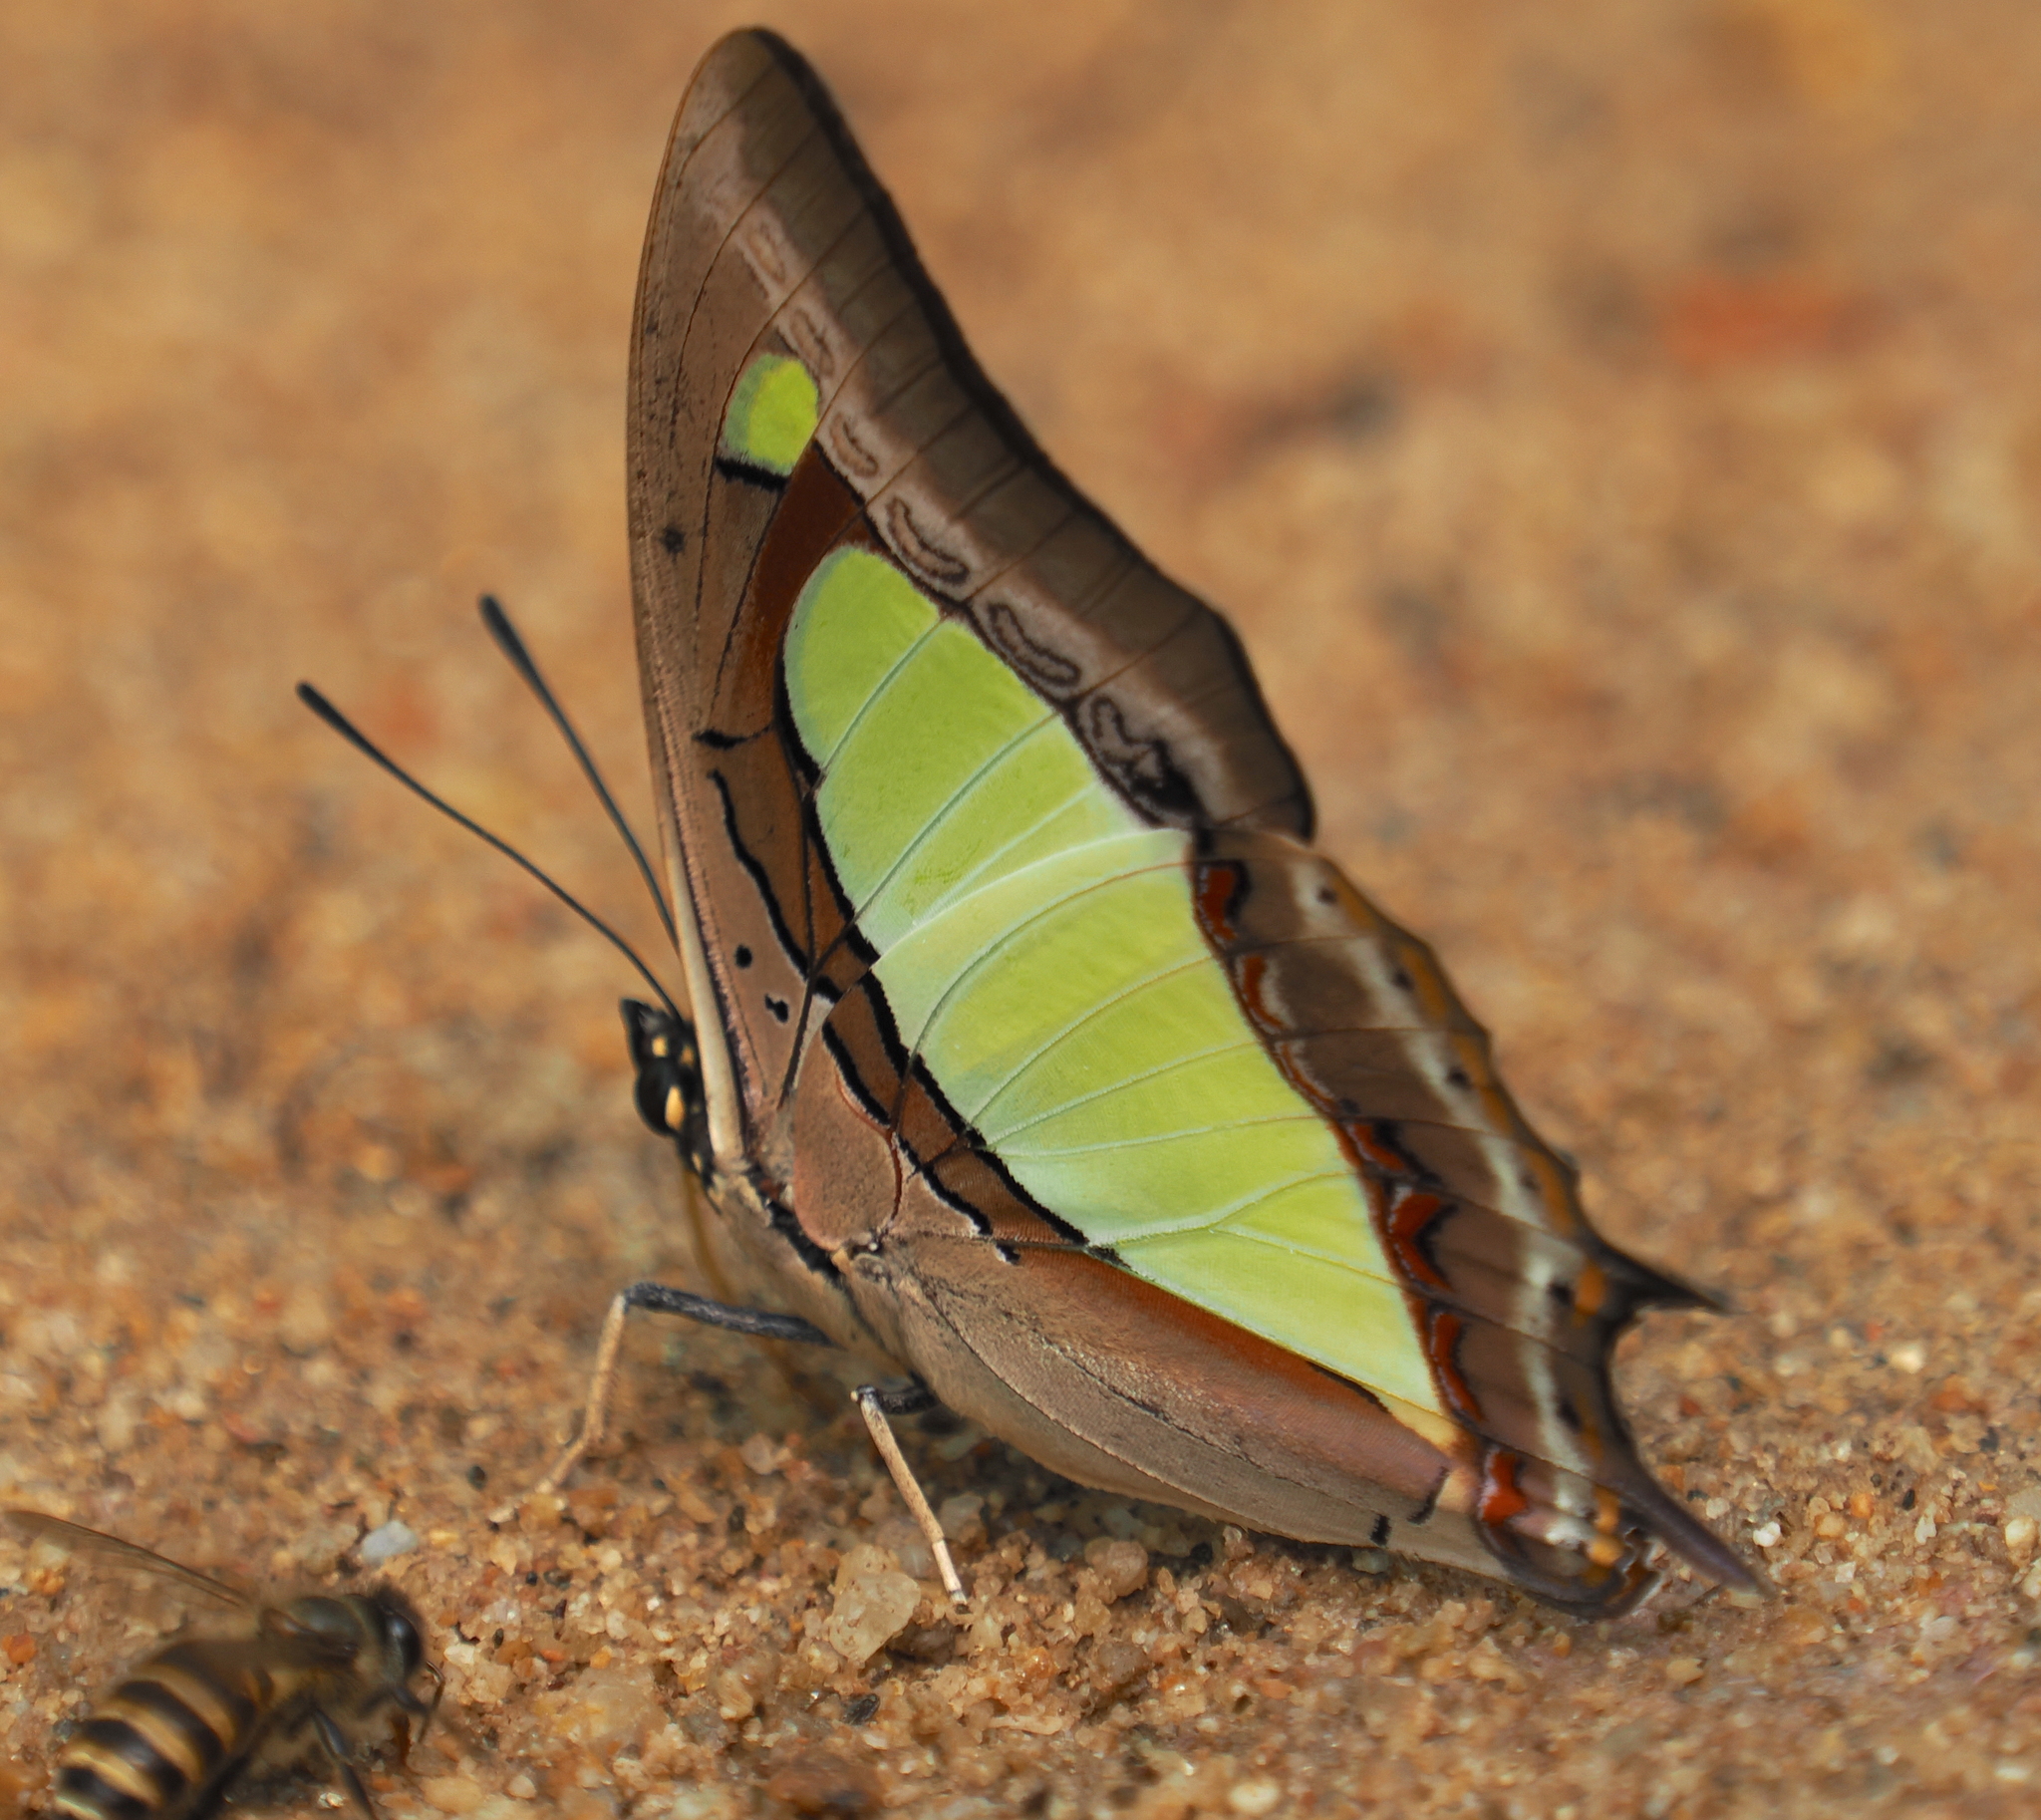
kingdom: Animalia
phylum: Arthropoda
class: Insecta
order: Lepidoptera
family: Nymphalidae
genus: Polyura
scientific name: Polyura athamas
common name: Common nawab
